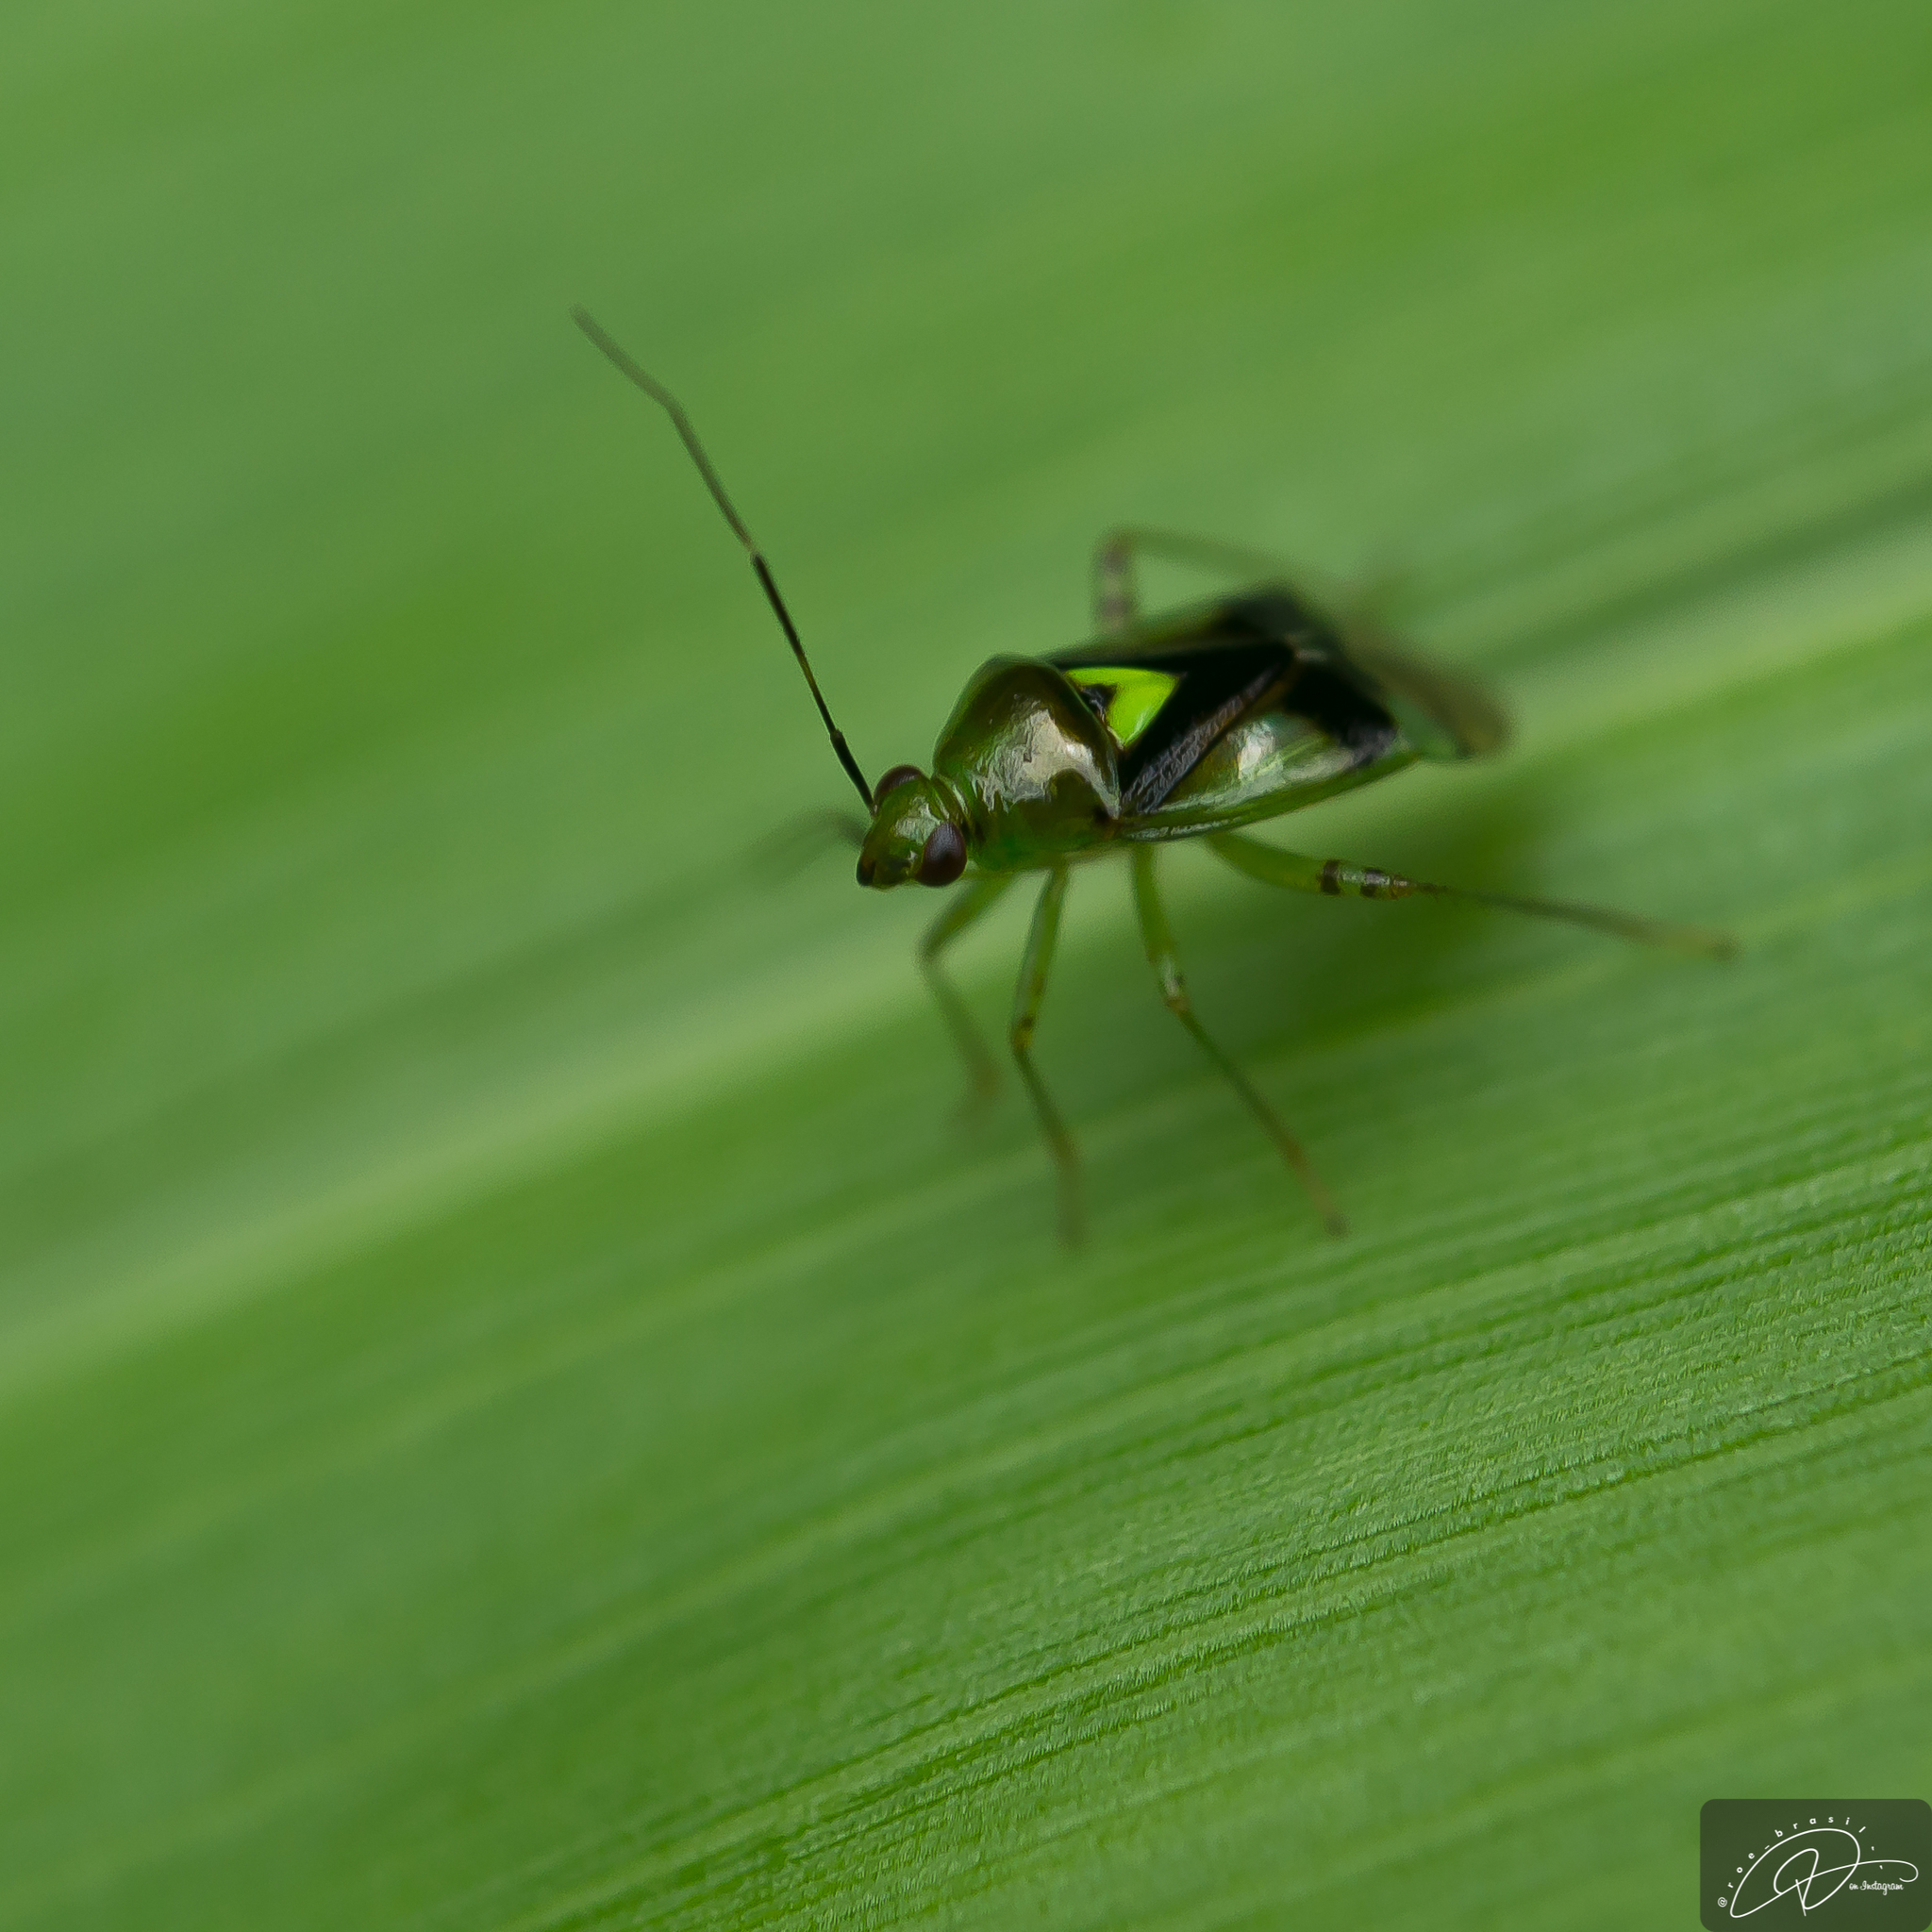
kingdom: Animalia
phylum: Arthropoda
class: Insecta
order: Hemiptera
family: Miridae
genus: Proba
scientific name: Proba missionera
